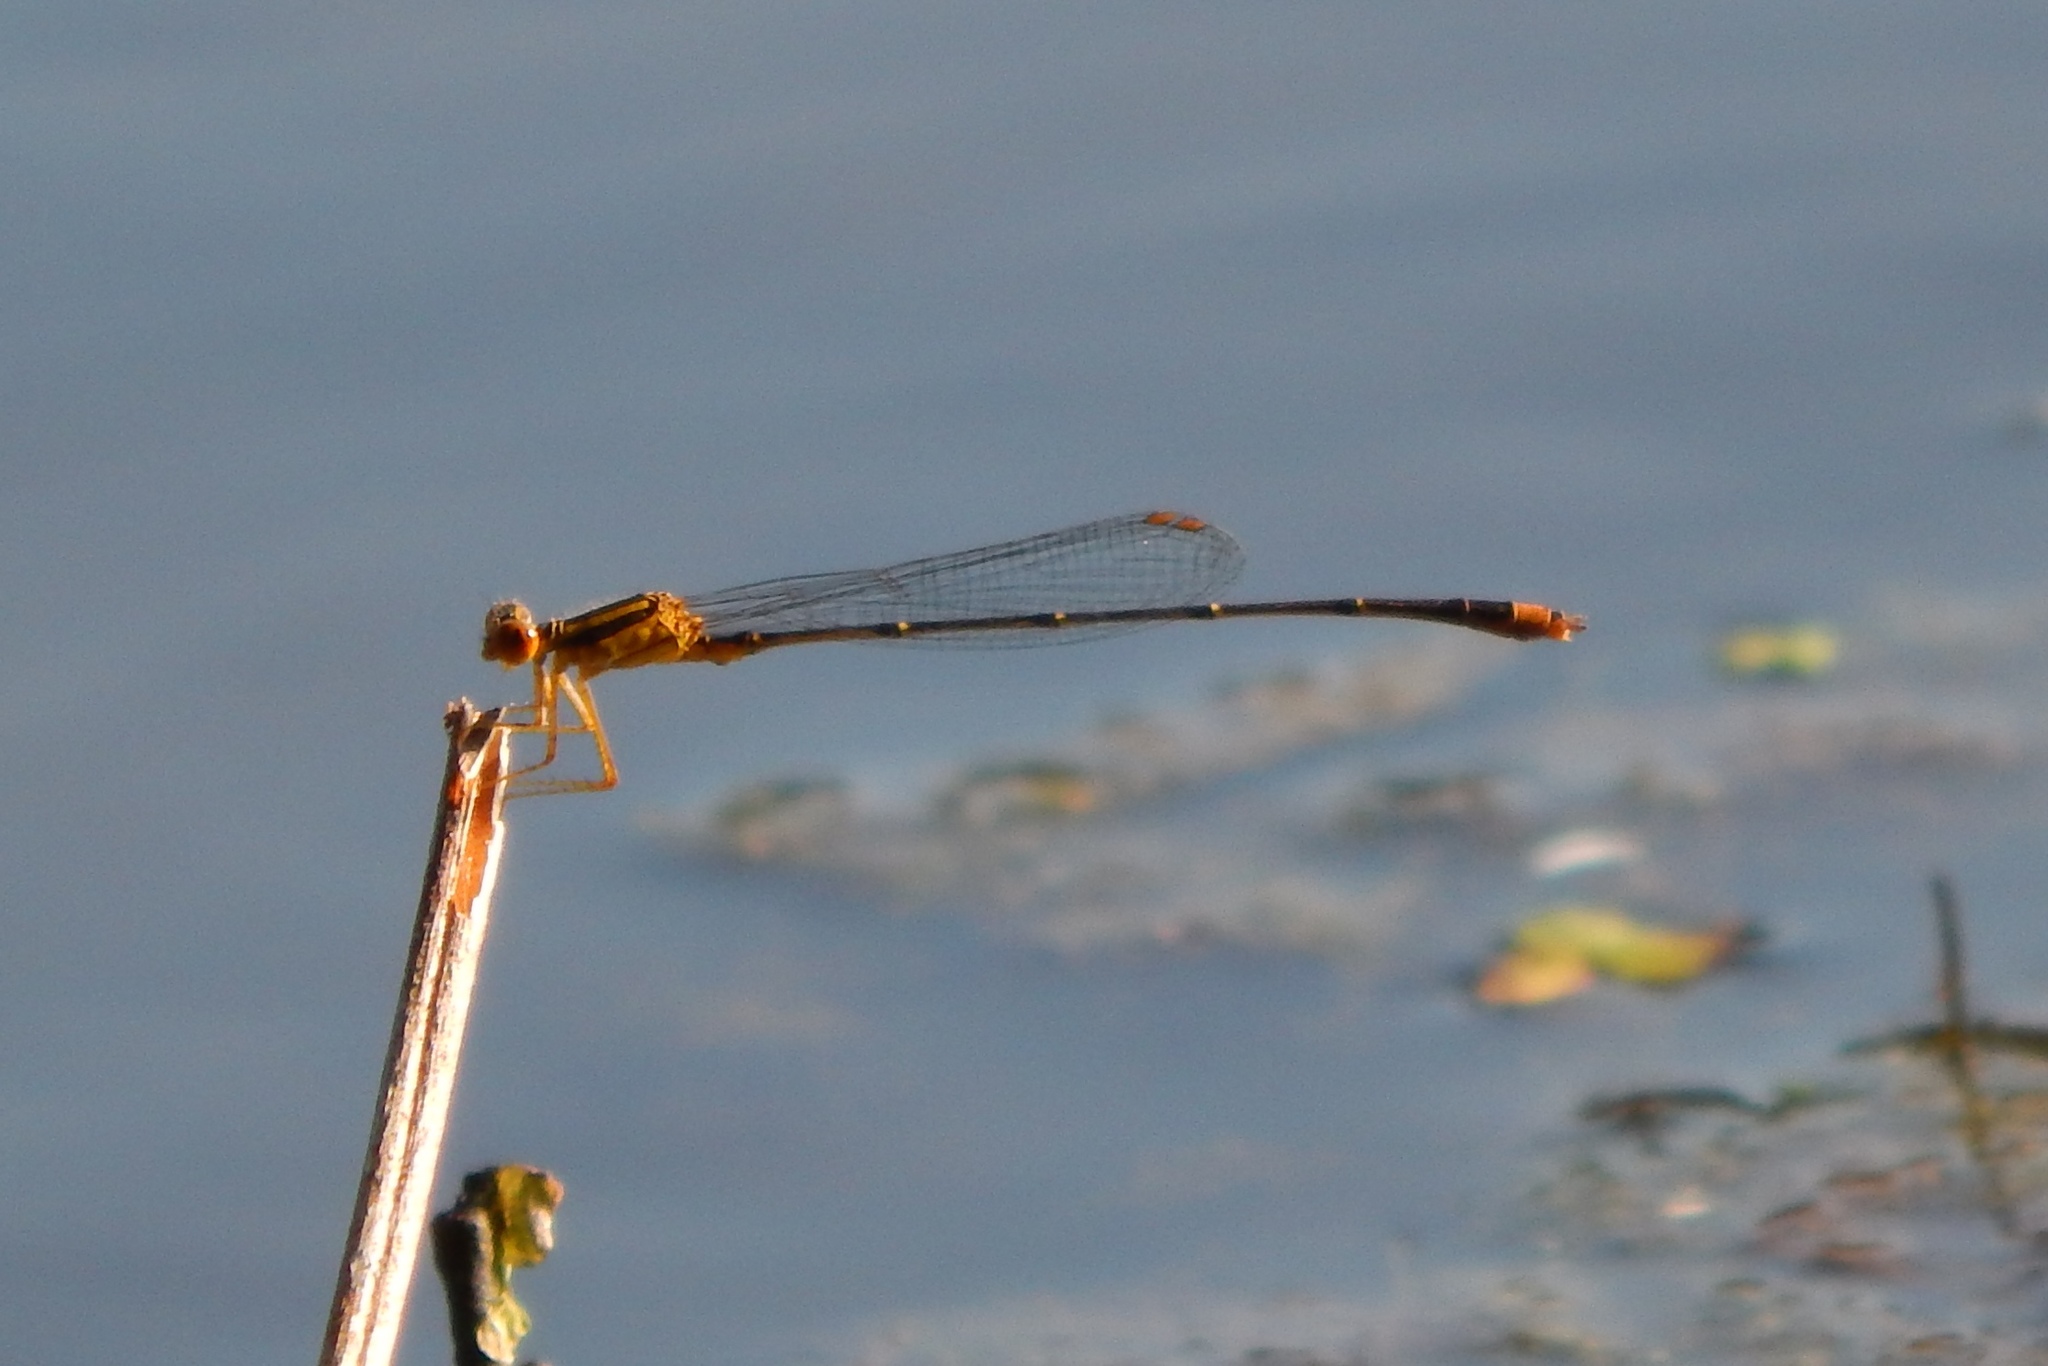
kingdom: Animalia
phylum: Arthropoda
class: Insecta
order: Odonata
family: Coenagrionidae
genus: Enallagma
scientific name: Enallagma signatum
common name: Orange bluet
